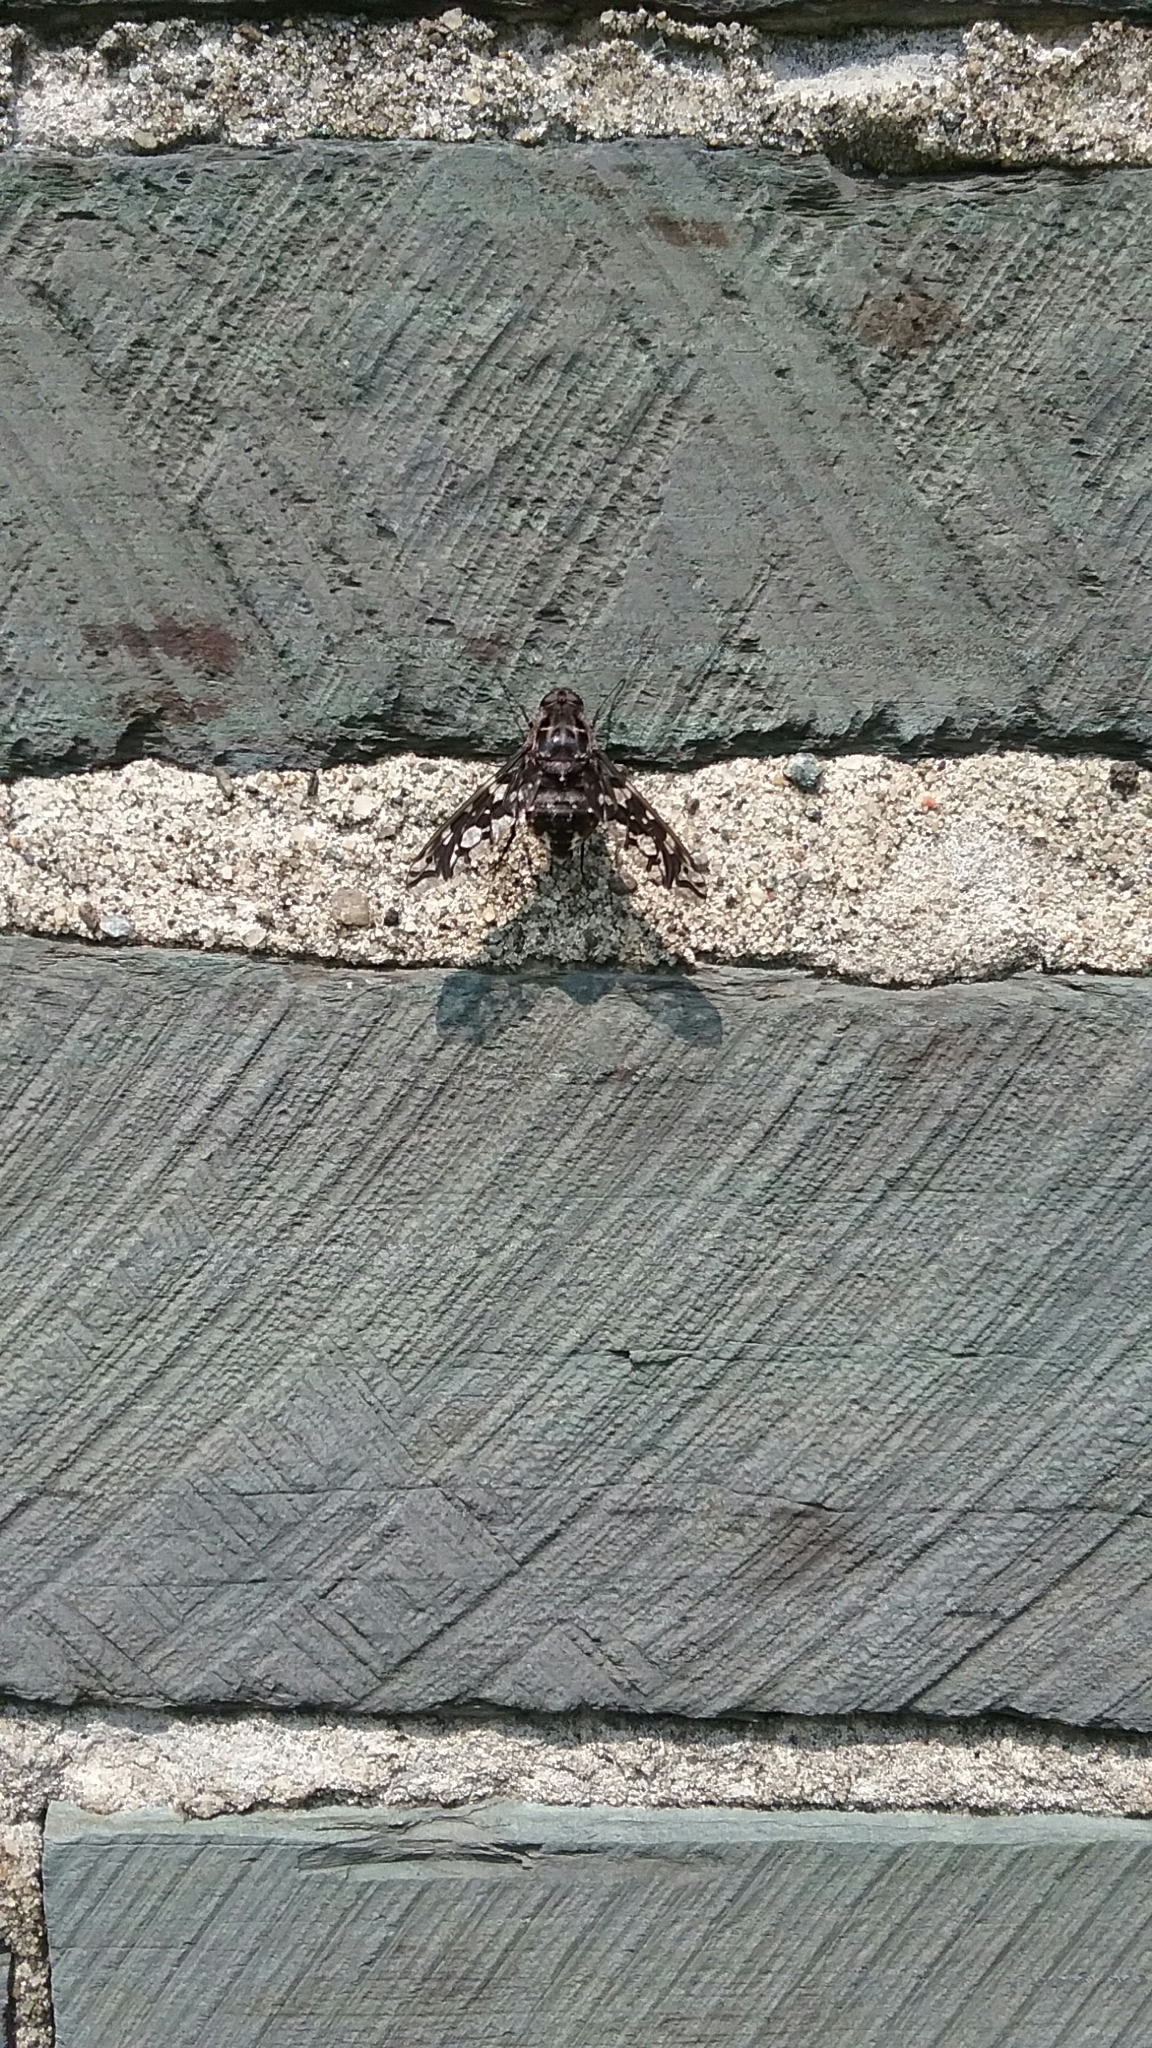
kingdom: Animalia
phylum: Arthropoda
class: Insecta
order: Diptera
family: Bombyliidae
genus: Xenox
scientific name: Xenox tigrinus
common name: Tiger bee fly
